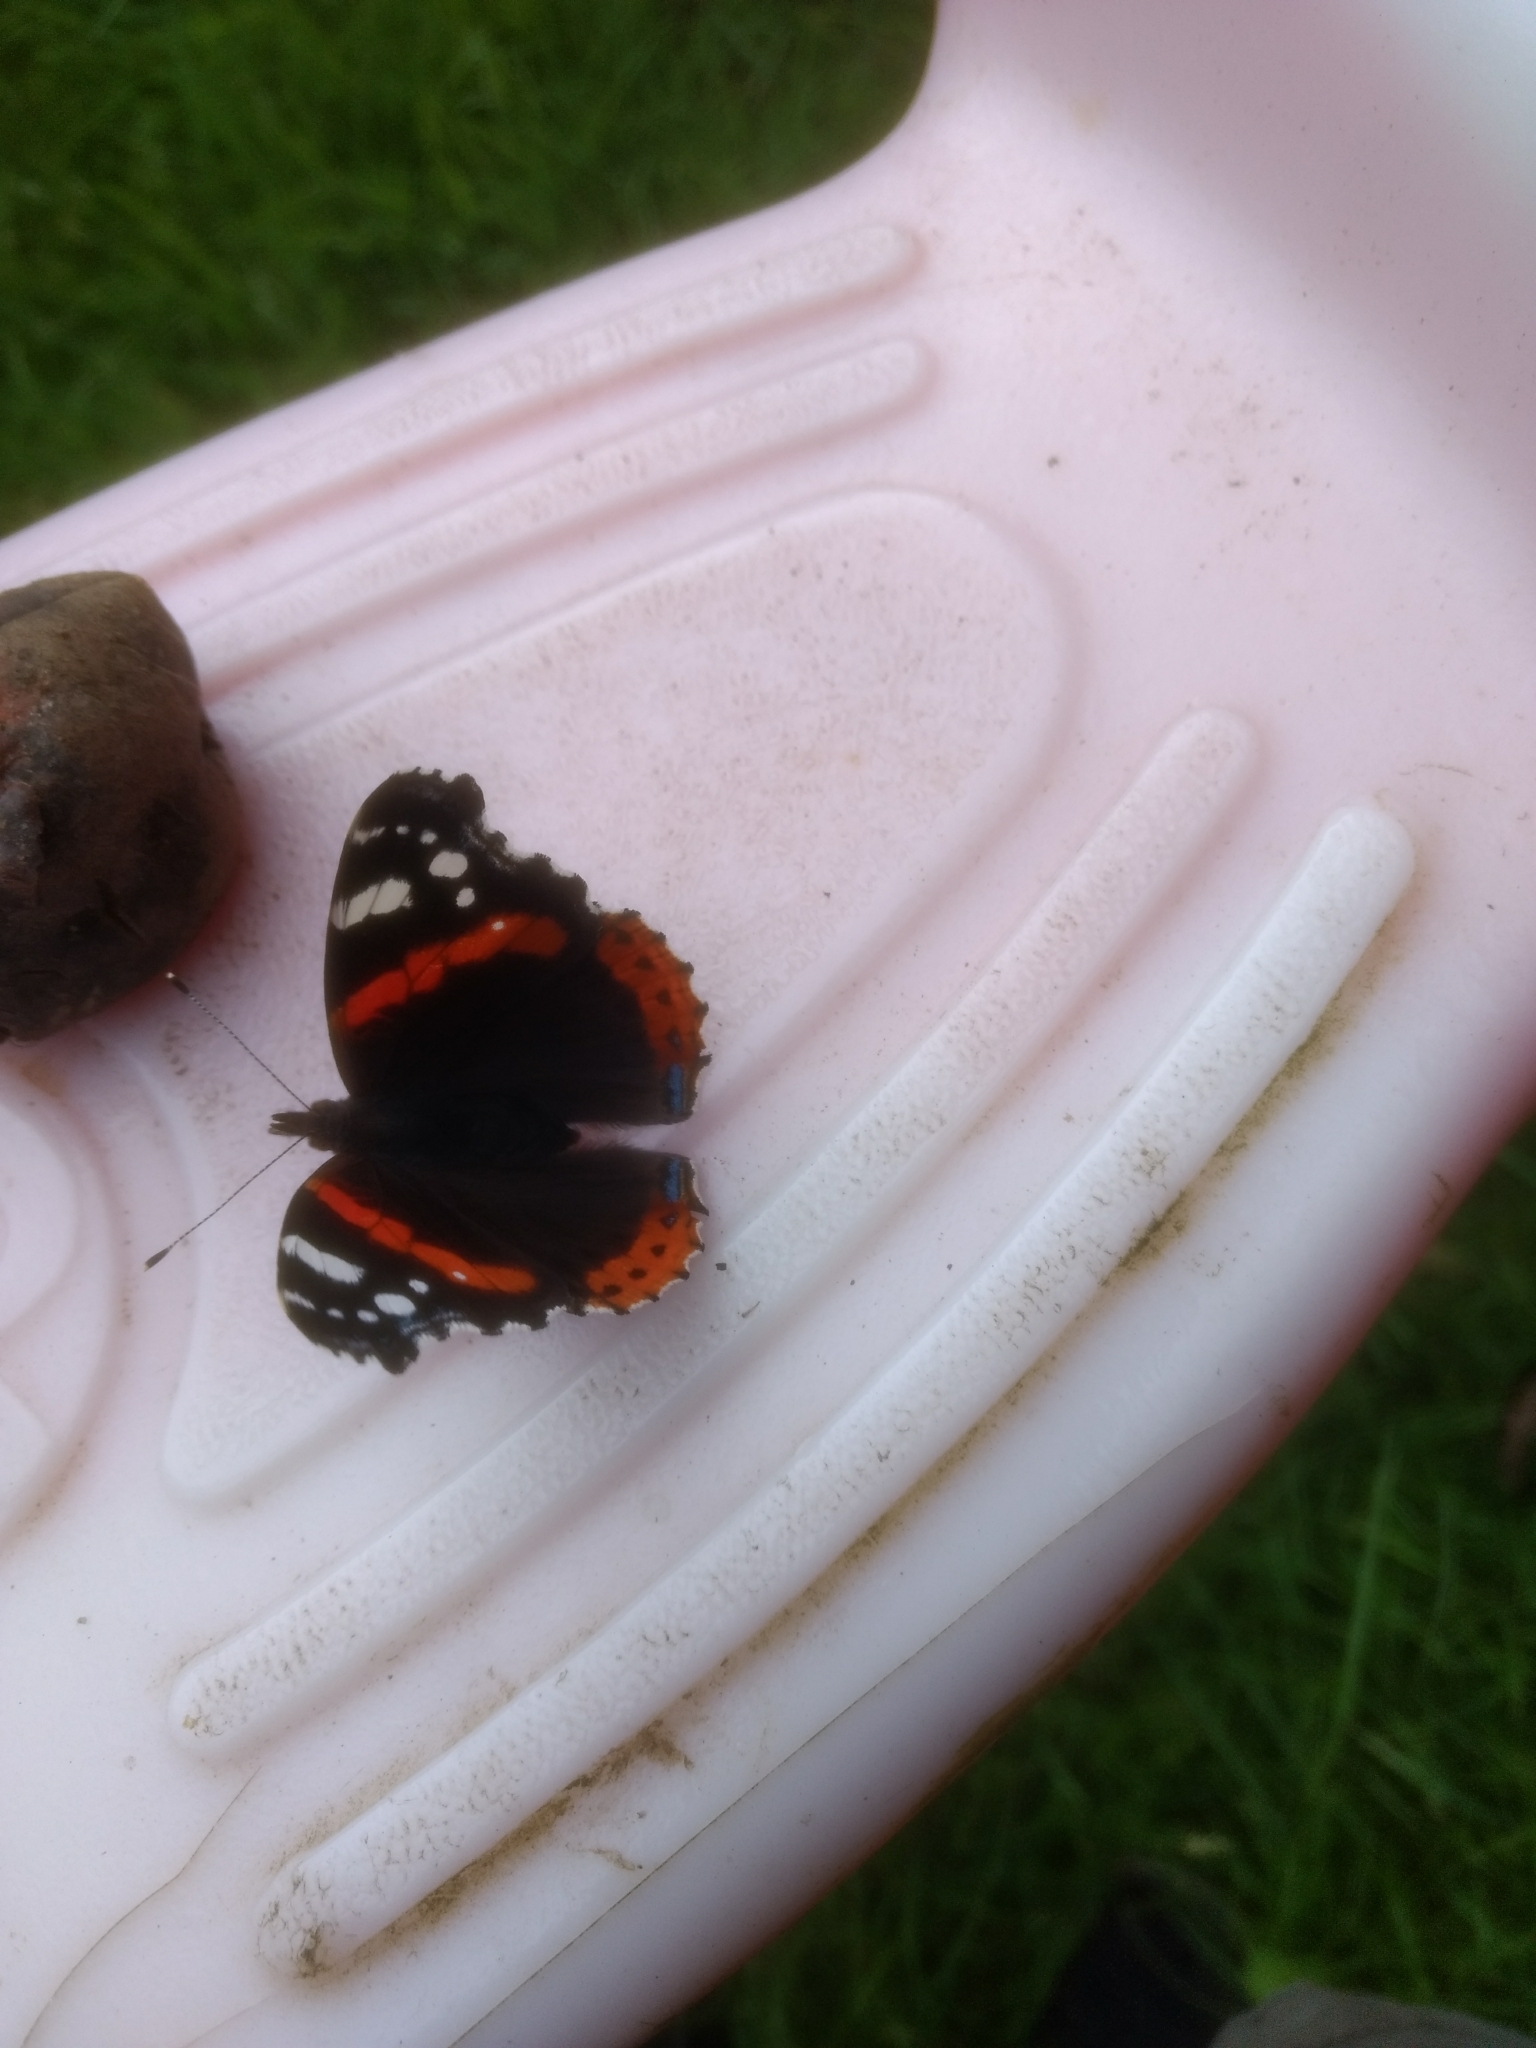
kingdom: Animalia
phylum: Arthropoda
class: Insecta
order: Lepidoptera
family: Nymphalidae
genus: Vanessa
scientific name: Vanessa atalanta
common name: Red admiral
